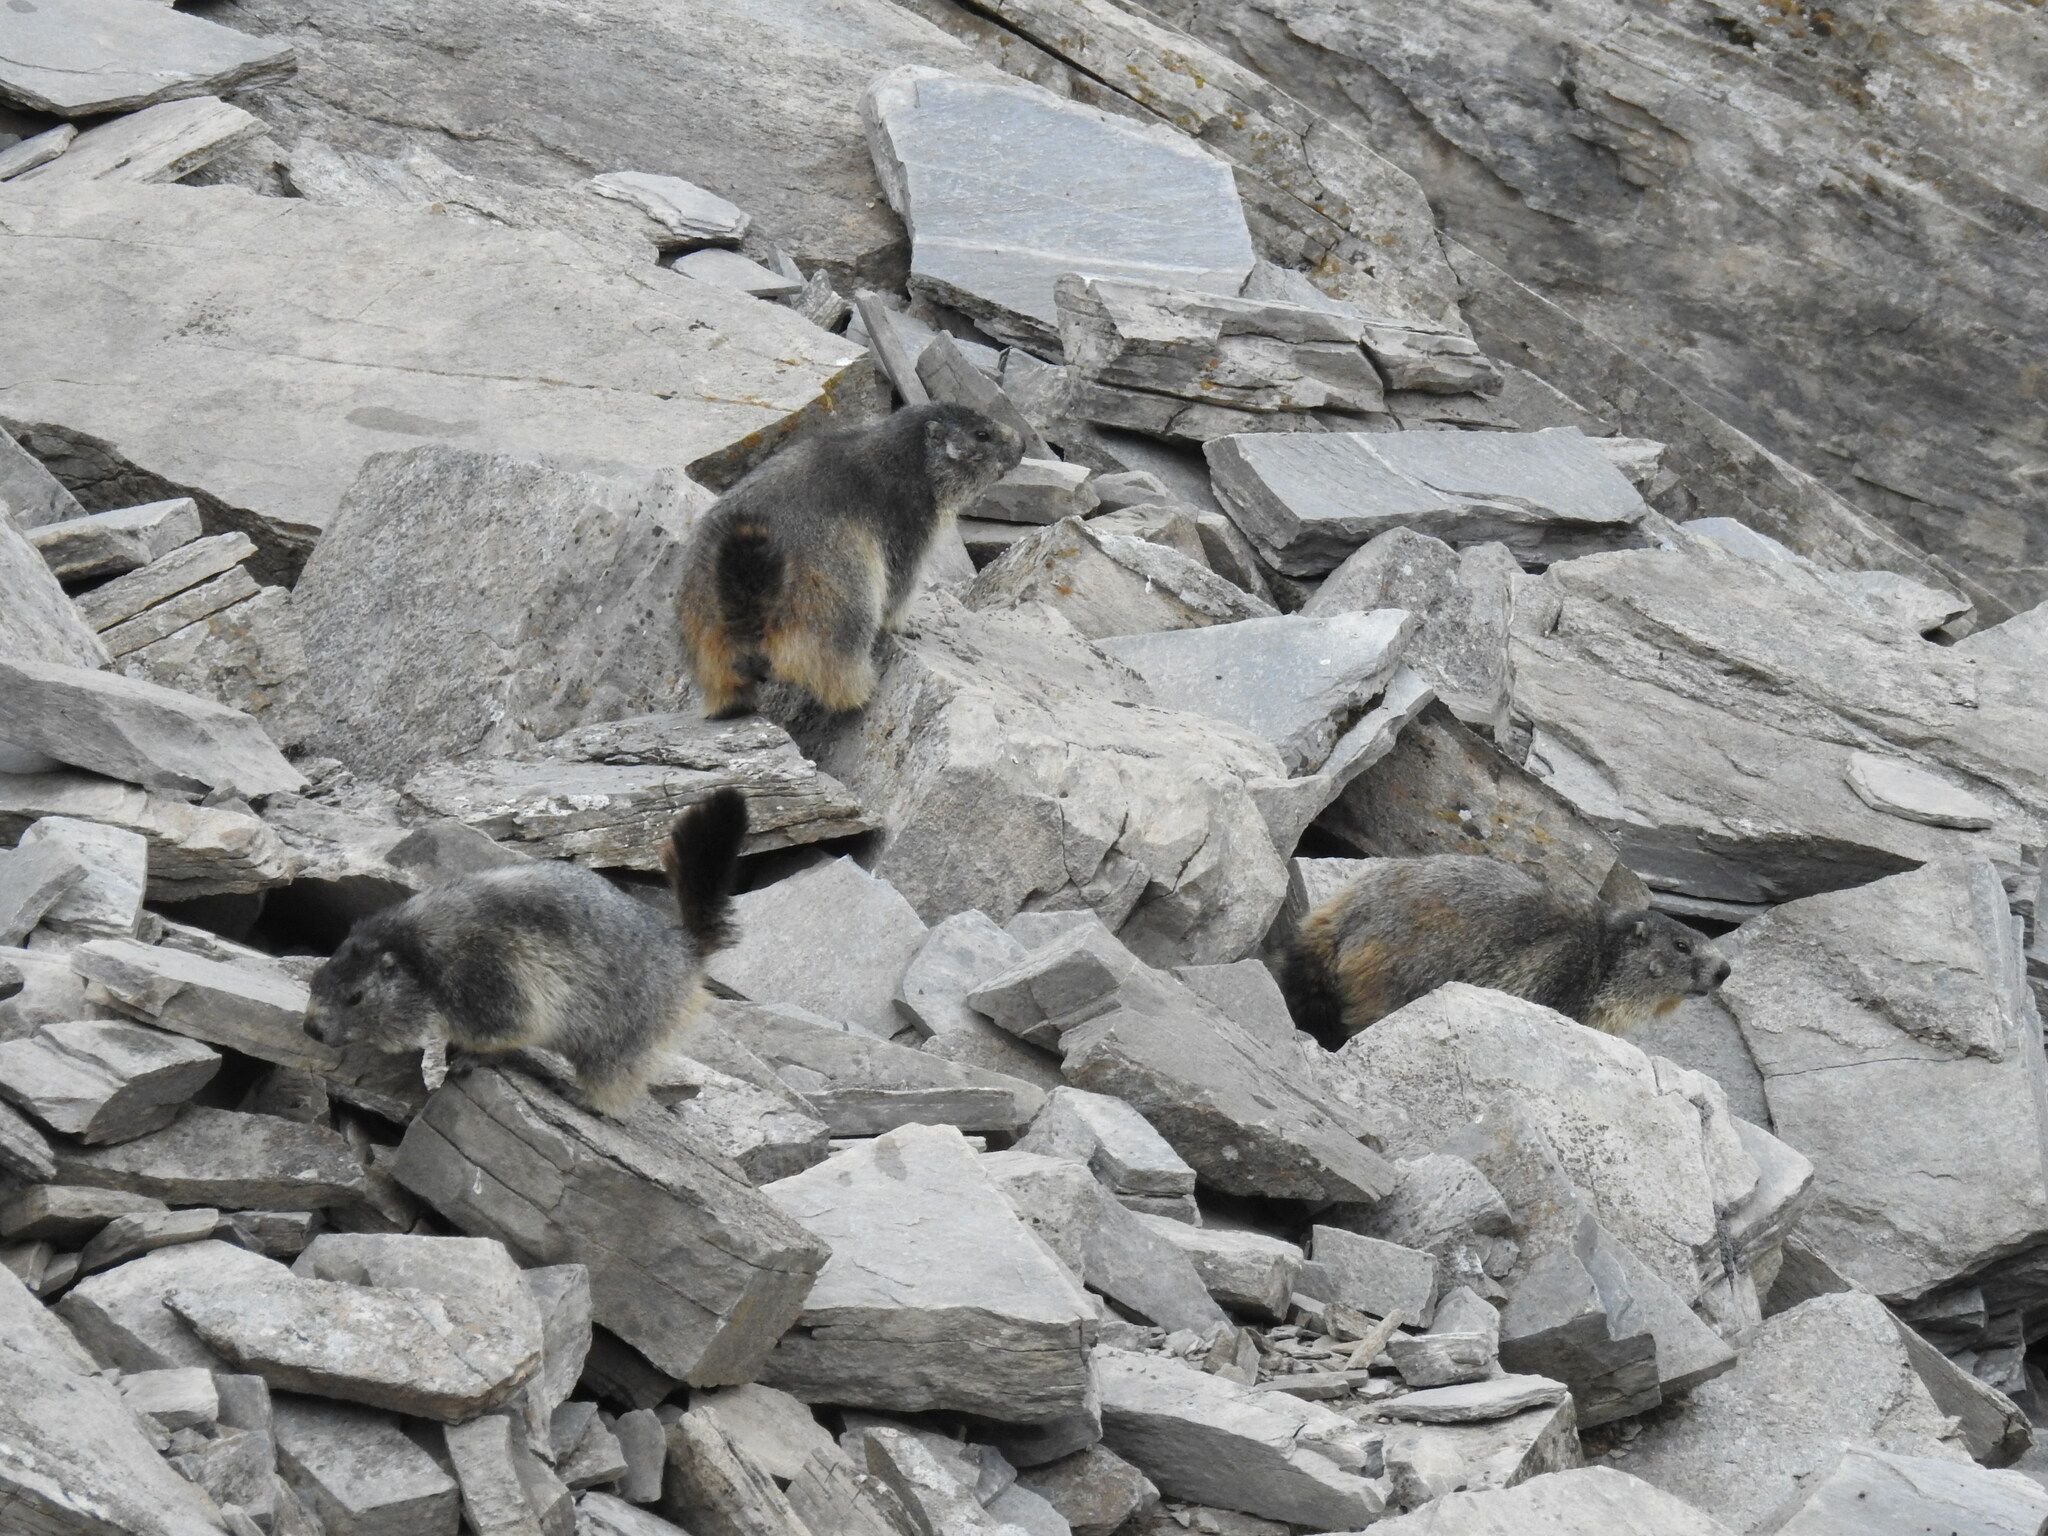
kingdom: Animalia
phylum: Chordata
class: Mammalia
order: Rodentia
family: Sciuridae
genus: Marmota
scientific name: Marmota marmota
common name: Alpine marmot
